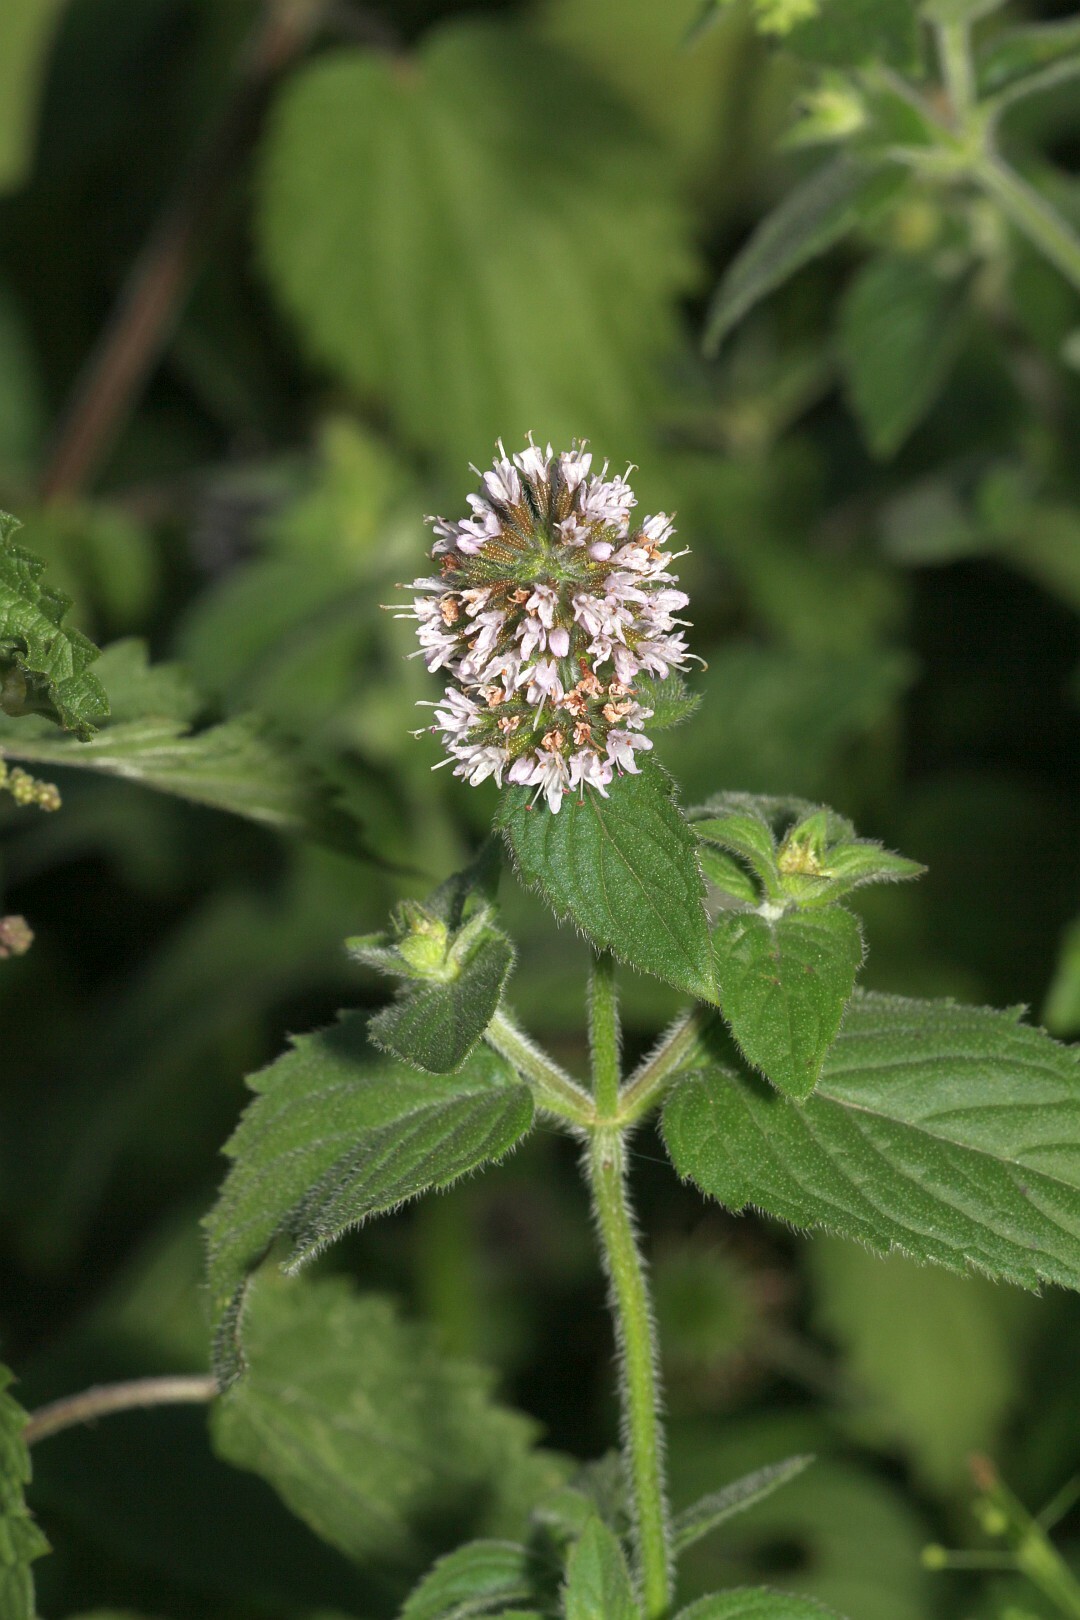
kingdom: Plantae
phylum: Tracheophyta
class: Magnoliopsida
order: Lamiales
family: Lamiaceae
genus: Mentha
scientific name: Mentha aquatica
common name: Water mint
